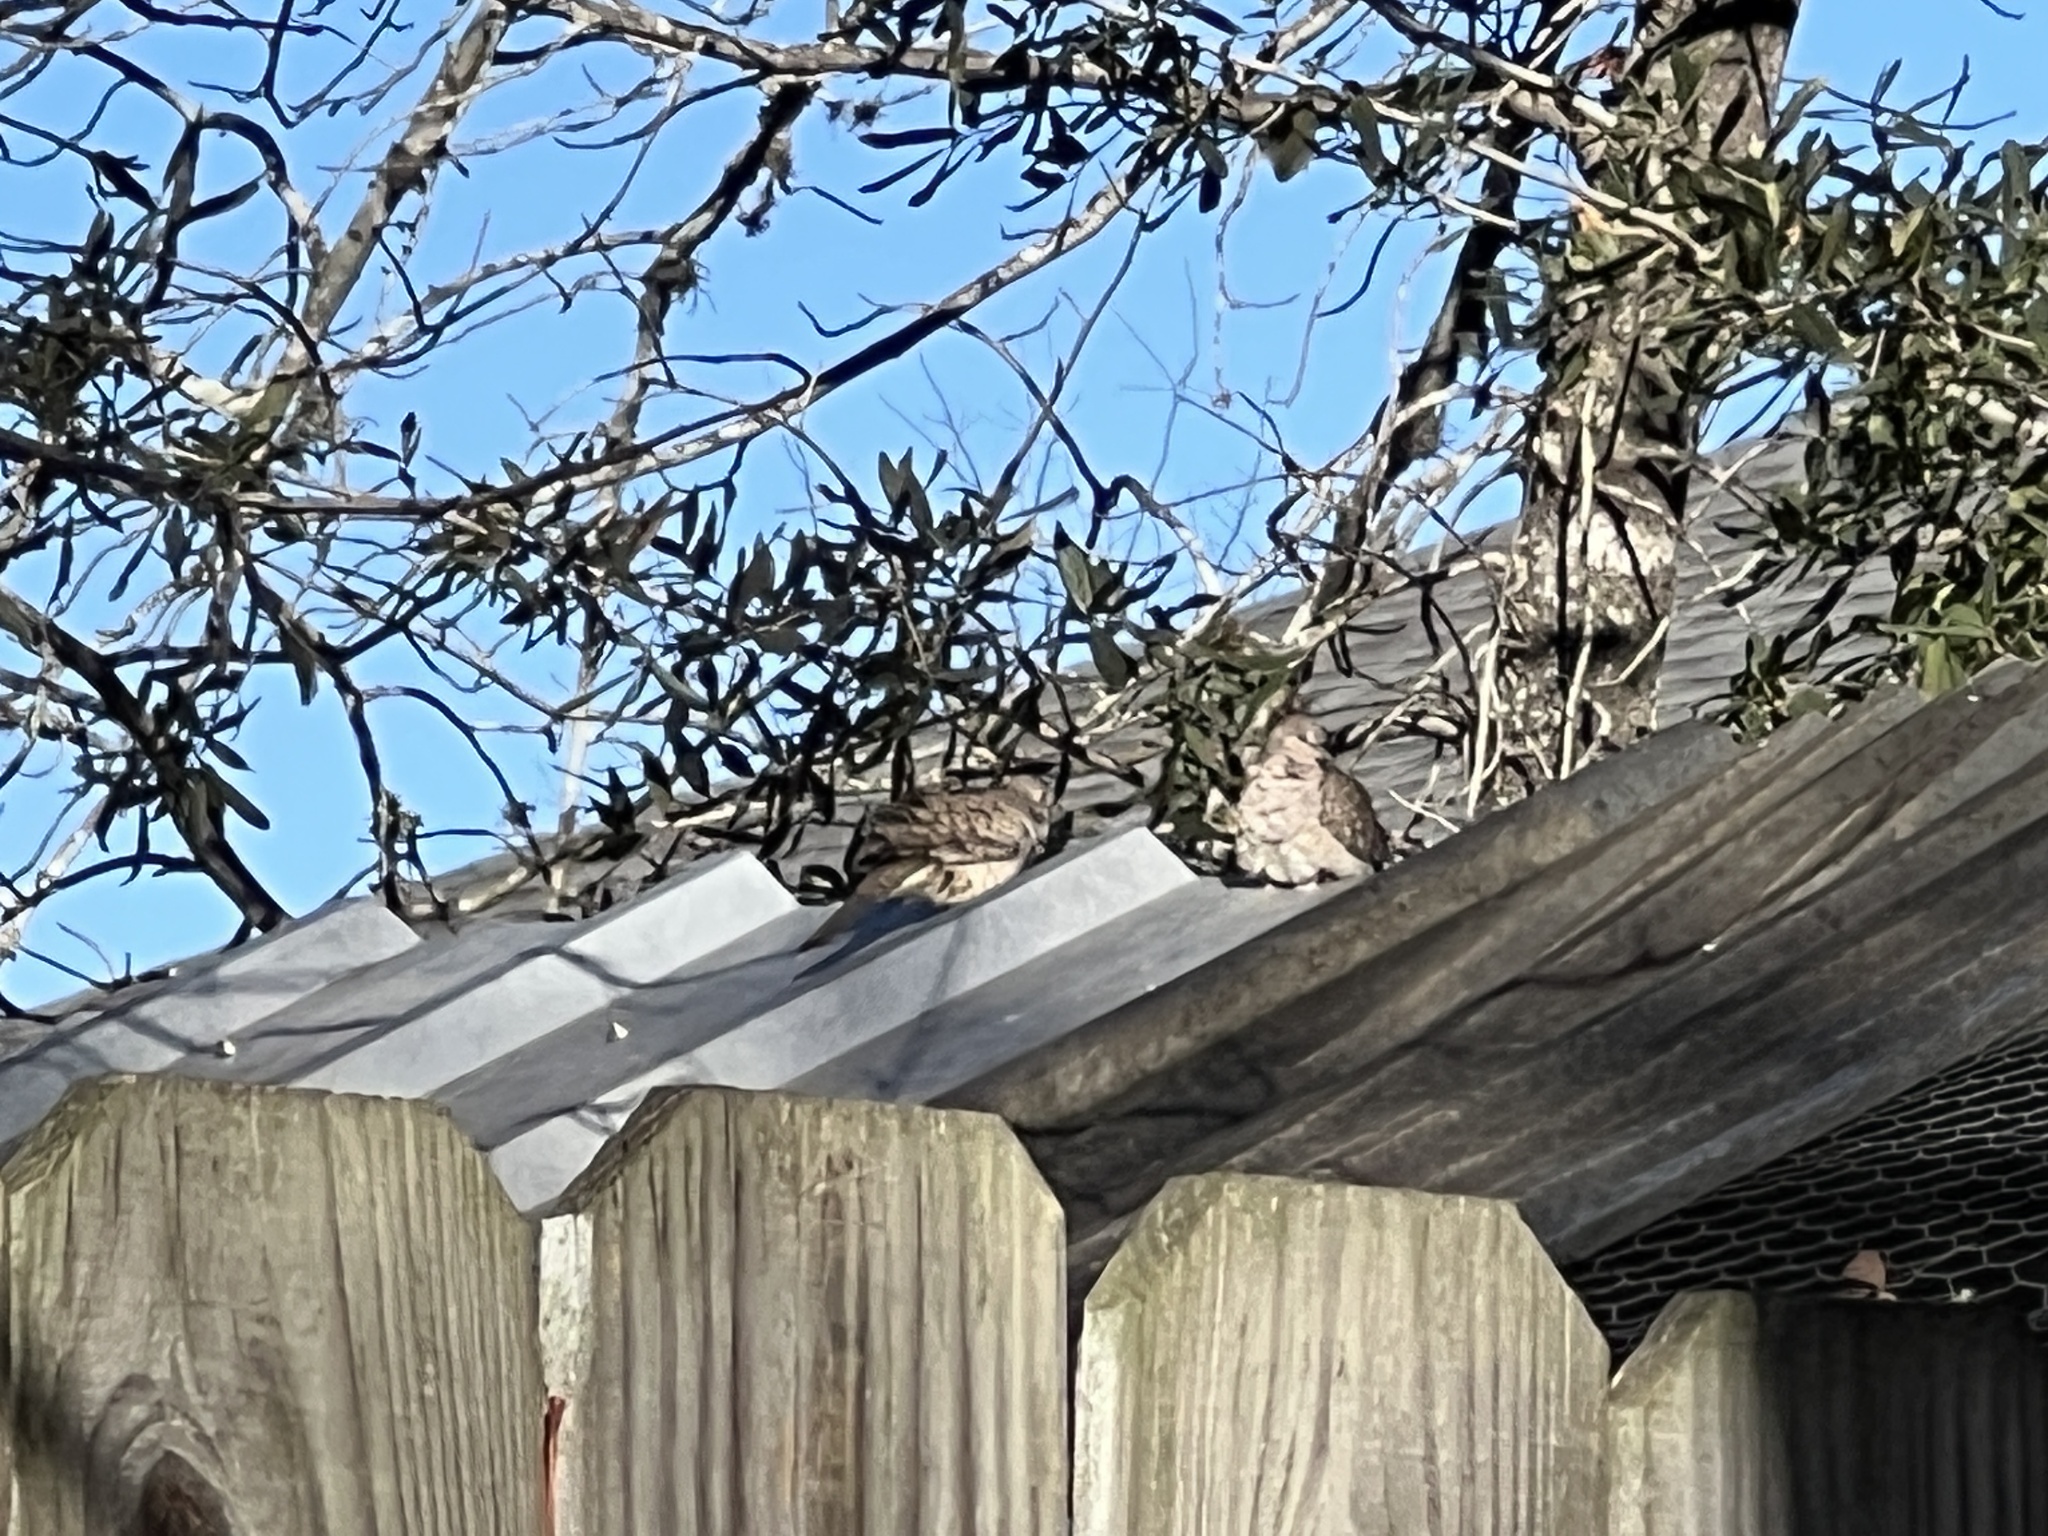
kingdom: Animalia
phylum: Chordata
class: Aves
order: Columbiformes
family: Columbidae
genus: Columbina
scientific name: Columbina inca
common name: Inca dove
